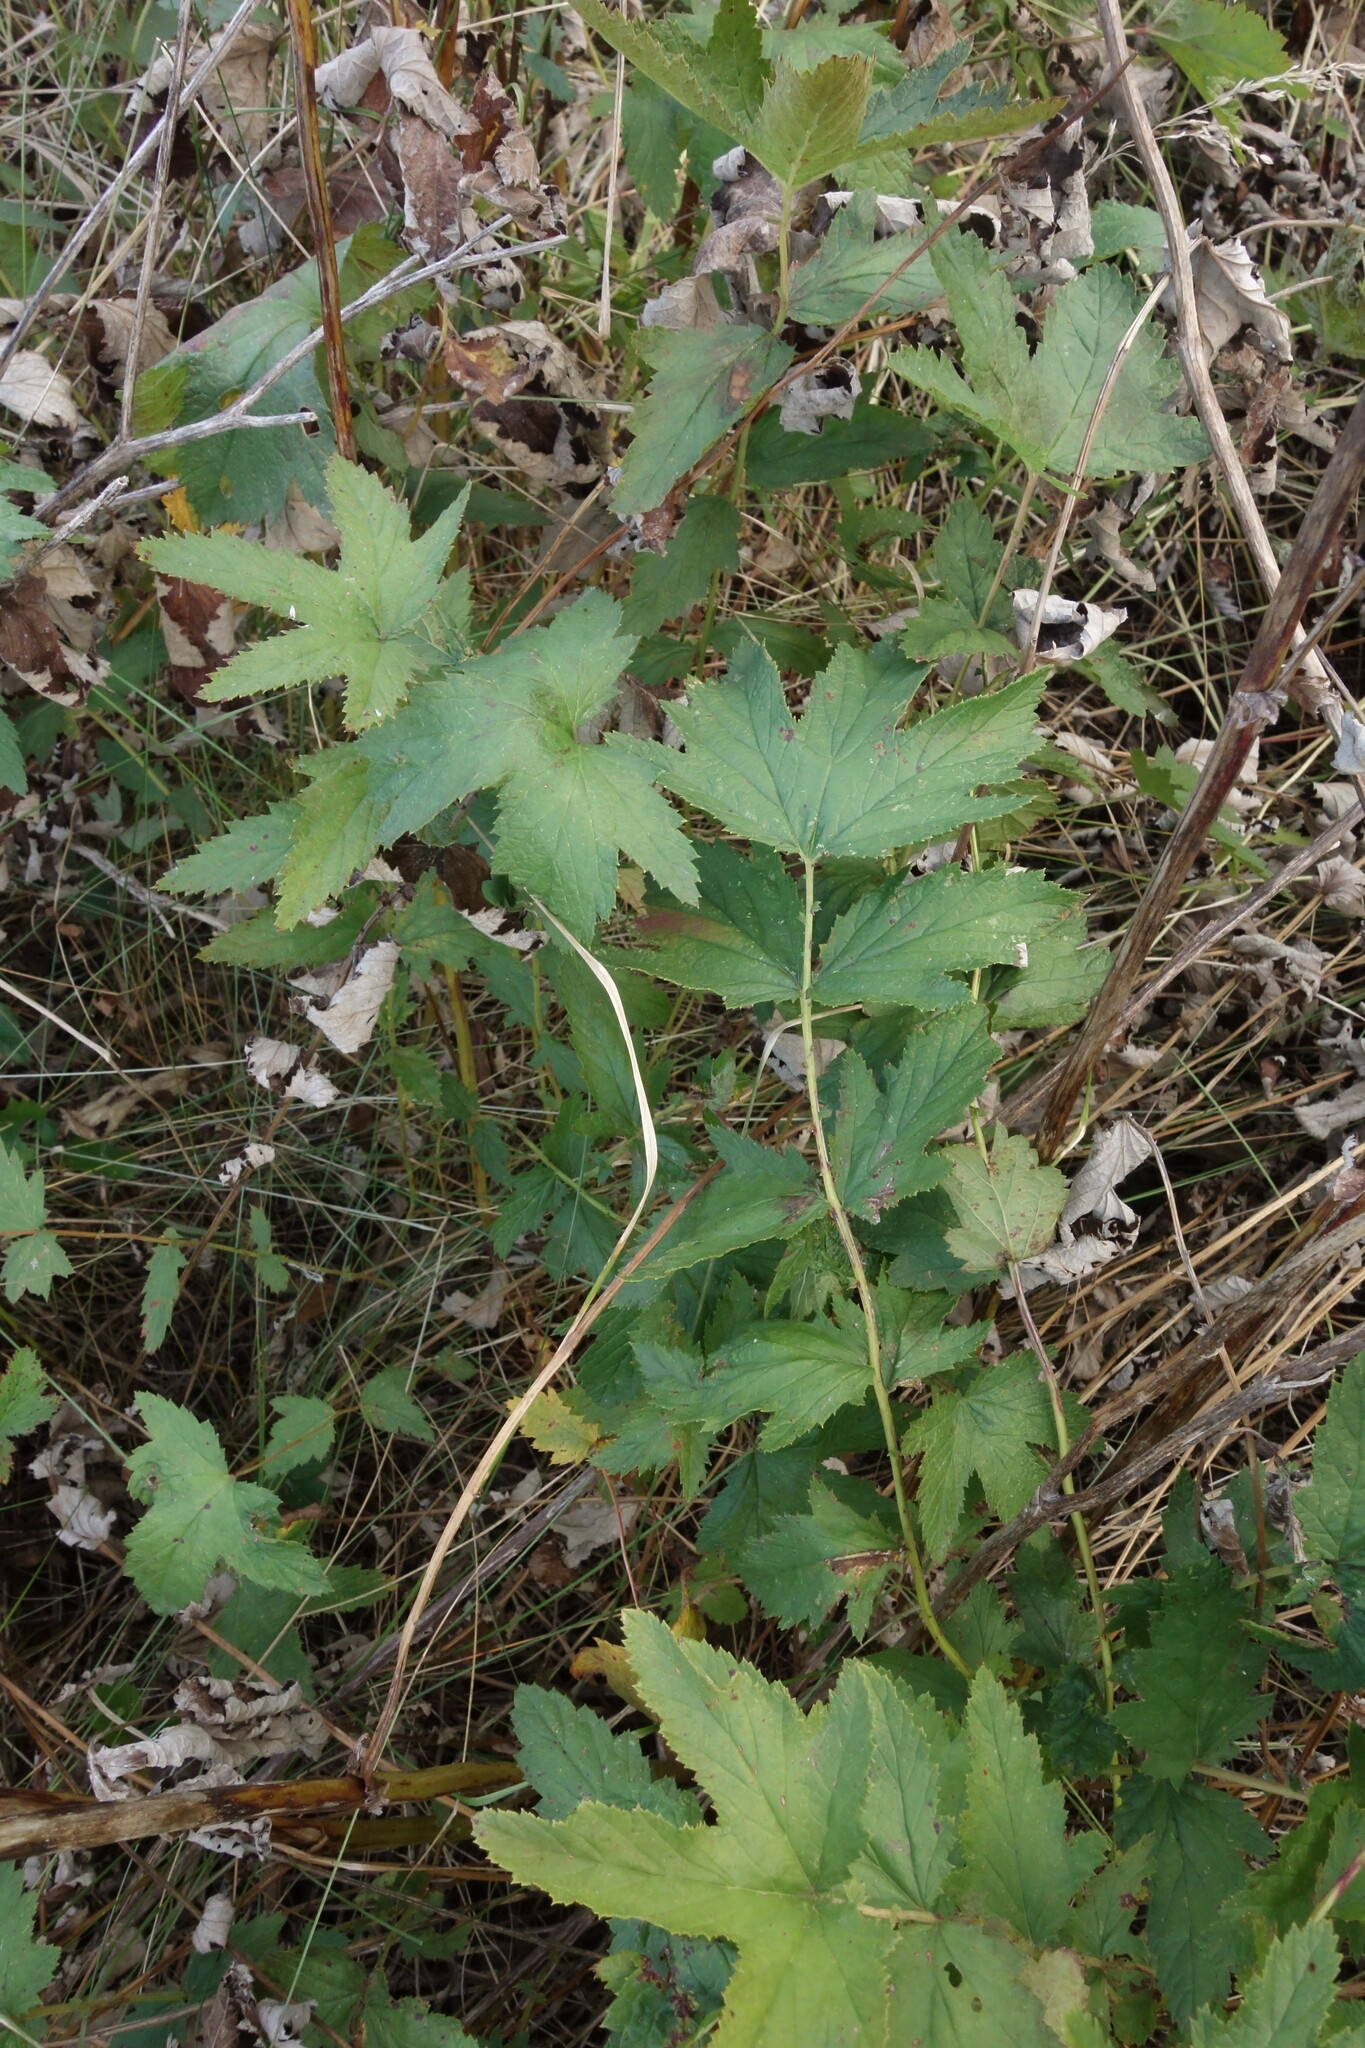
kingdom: Plantae
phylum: Tracheophyta
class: Magnoliopsida
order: Rosales
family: Rosaceae
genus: Filipendula
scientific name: Filipendula ulmaria
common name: Meadowsweet
